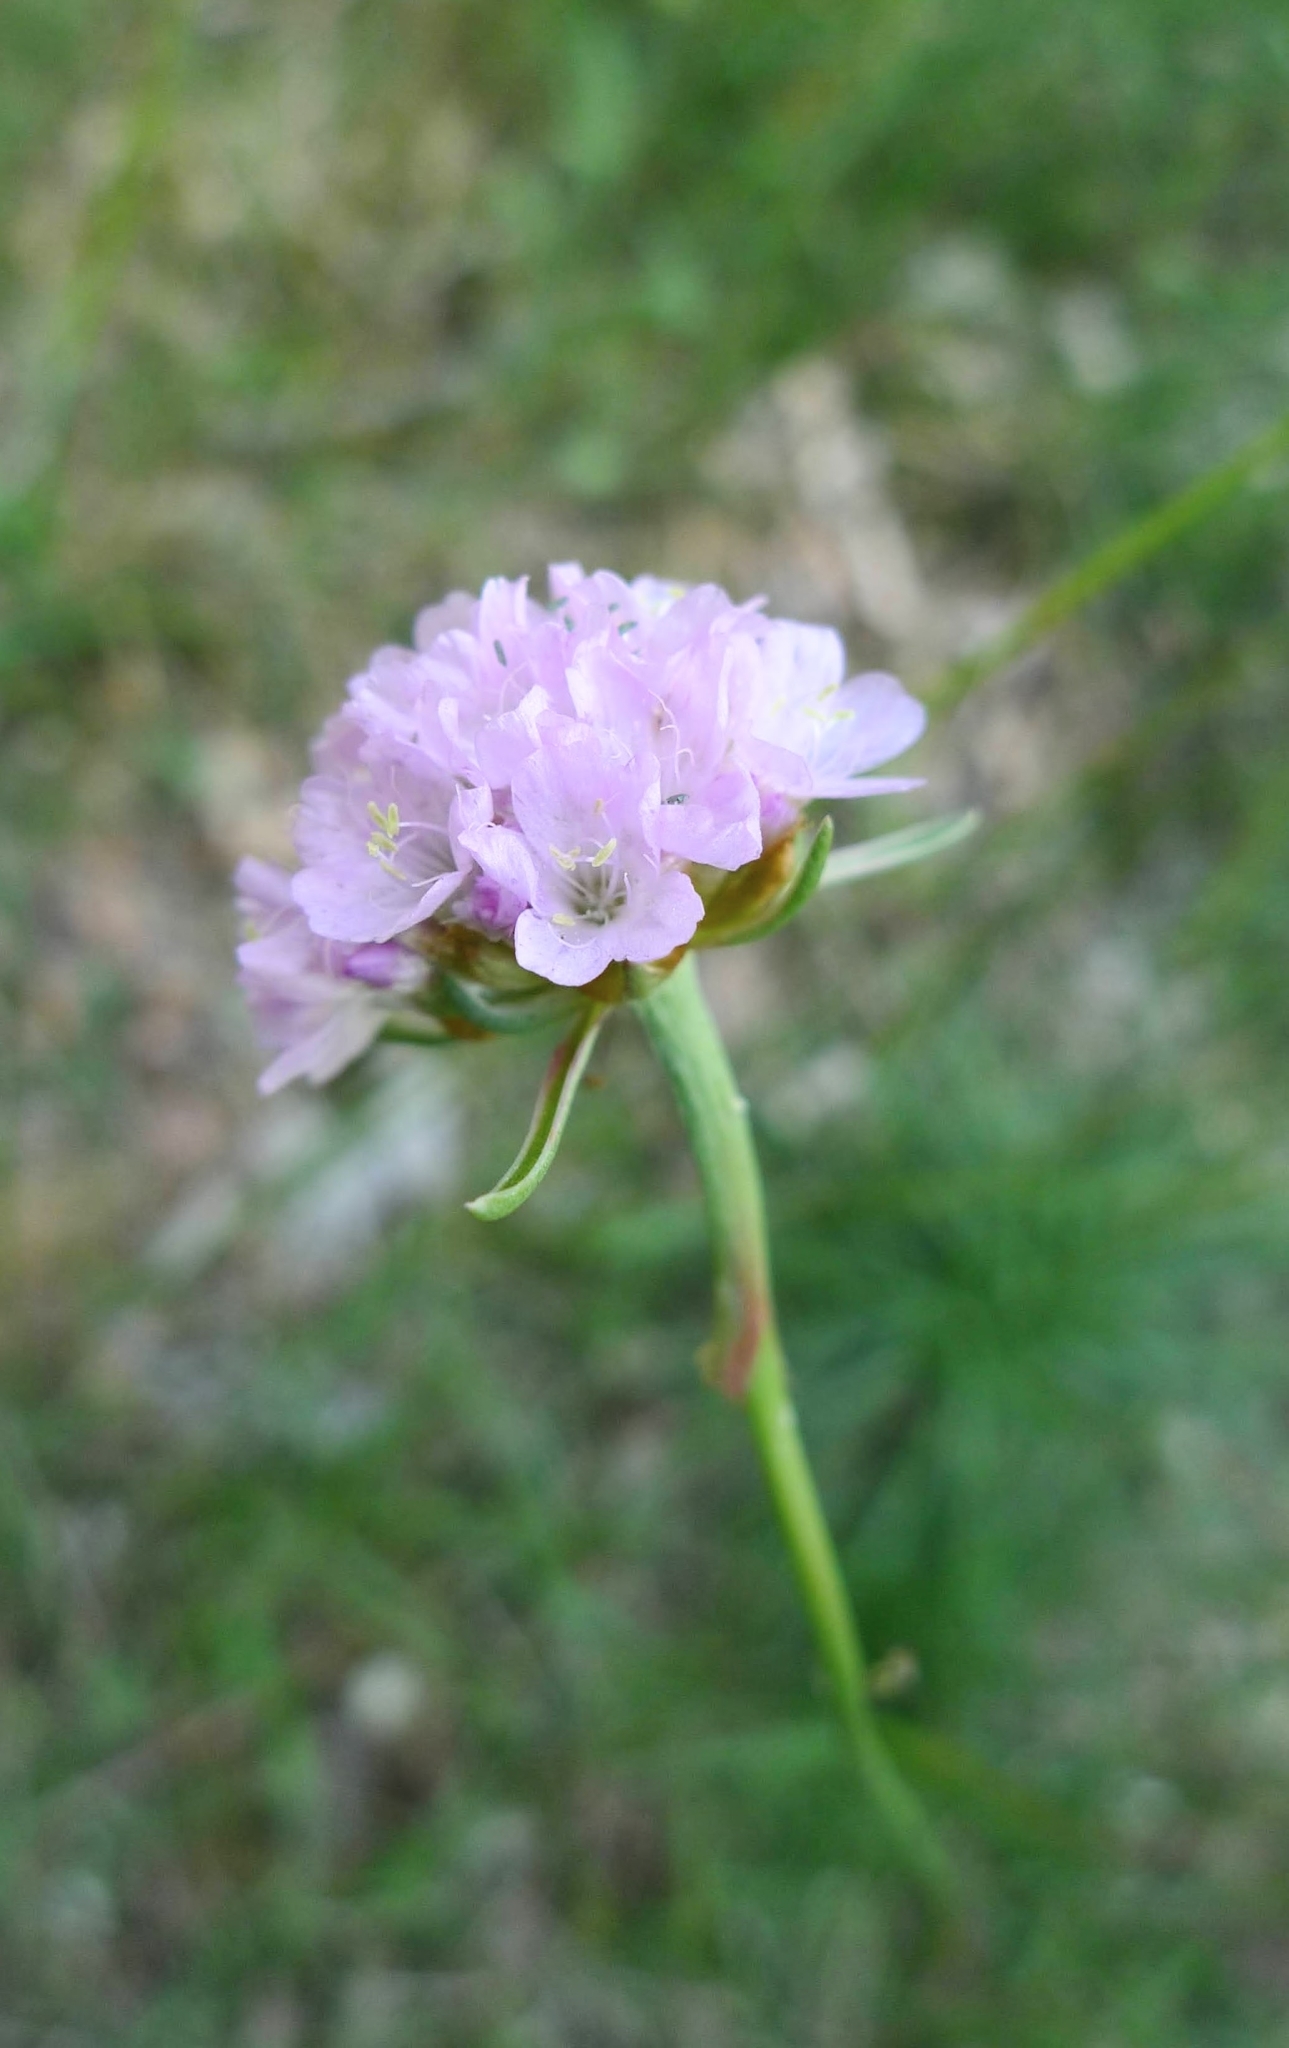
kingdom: Plantae
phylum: Tracheophyta
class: Magnoliopsida
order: Caryophyllales
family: Plumbaginaceae
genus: Armeria
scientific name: Armeria maritima
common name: Thrift
